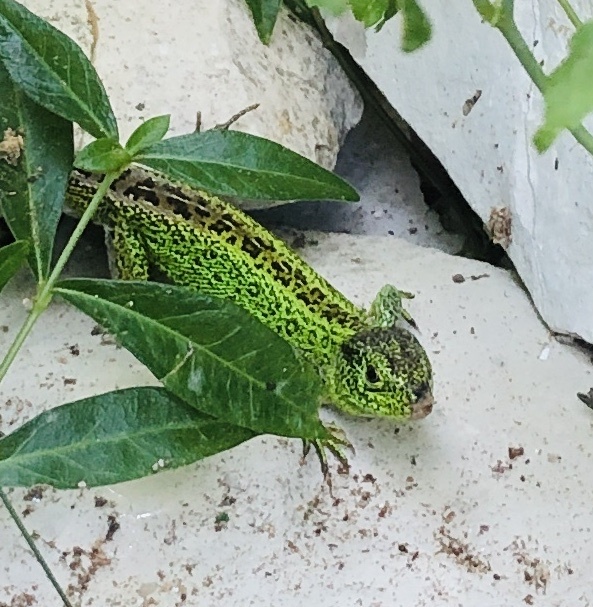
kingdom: Animalia
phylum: Chordata
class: Squamata
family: Lacertidae
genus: Lacerta
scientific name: Lacerta agilis
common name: Sand lizard
